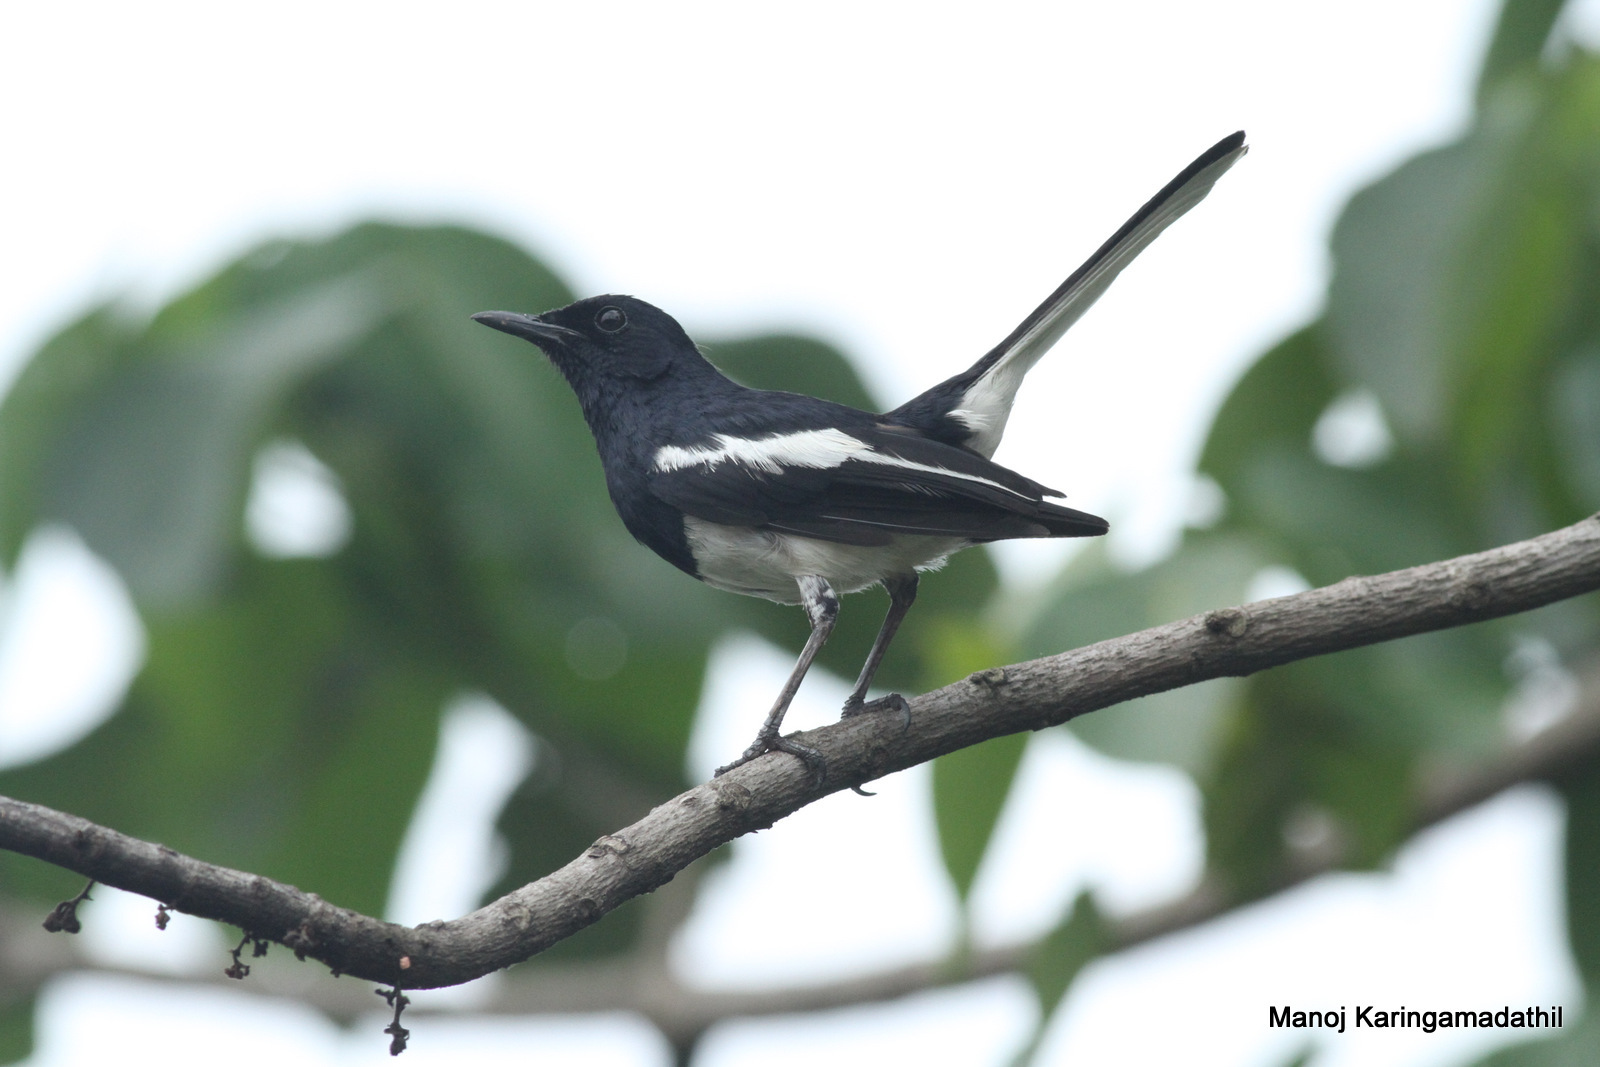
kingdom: Animalia
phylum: Chordata
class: Aves
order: Passeriformes
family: Muscicapidae
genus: Copsychus
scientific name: Copsychus saularis
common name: Oriental magpie-robin
